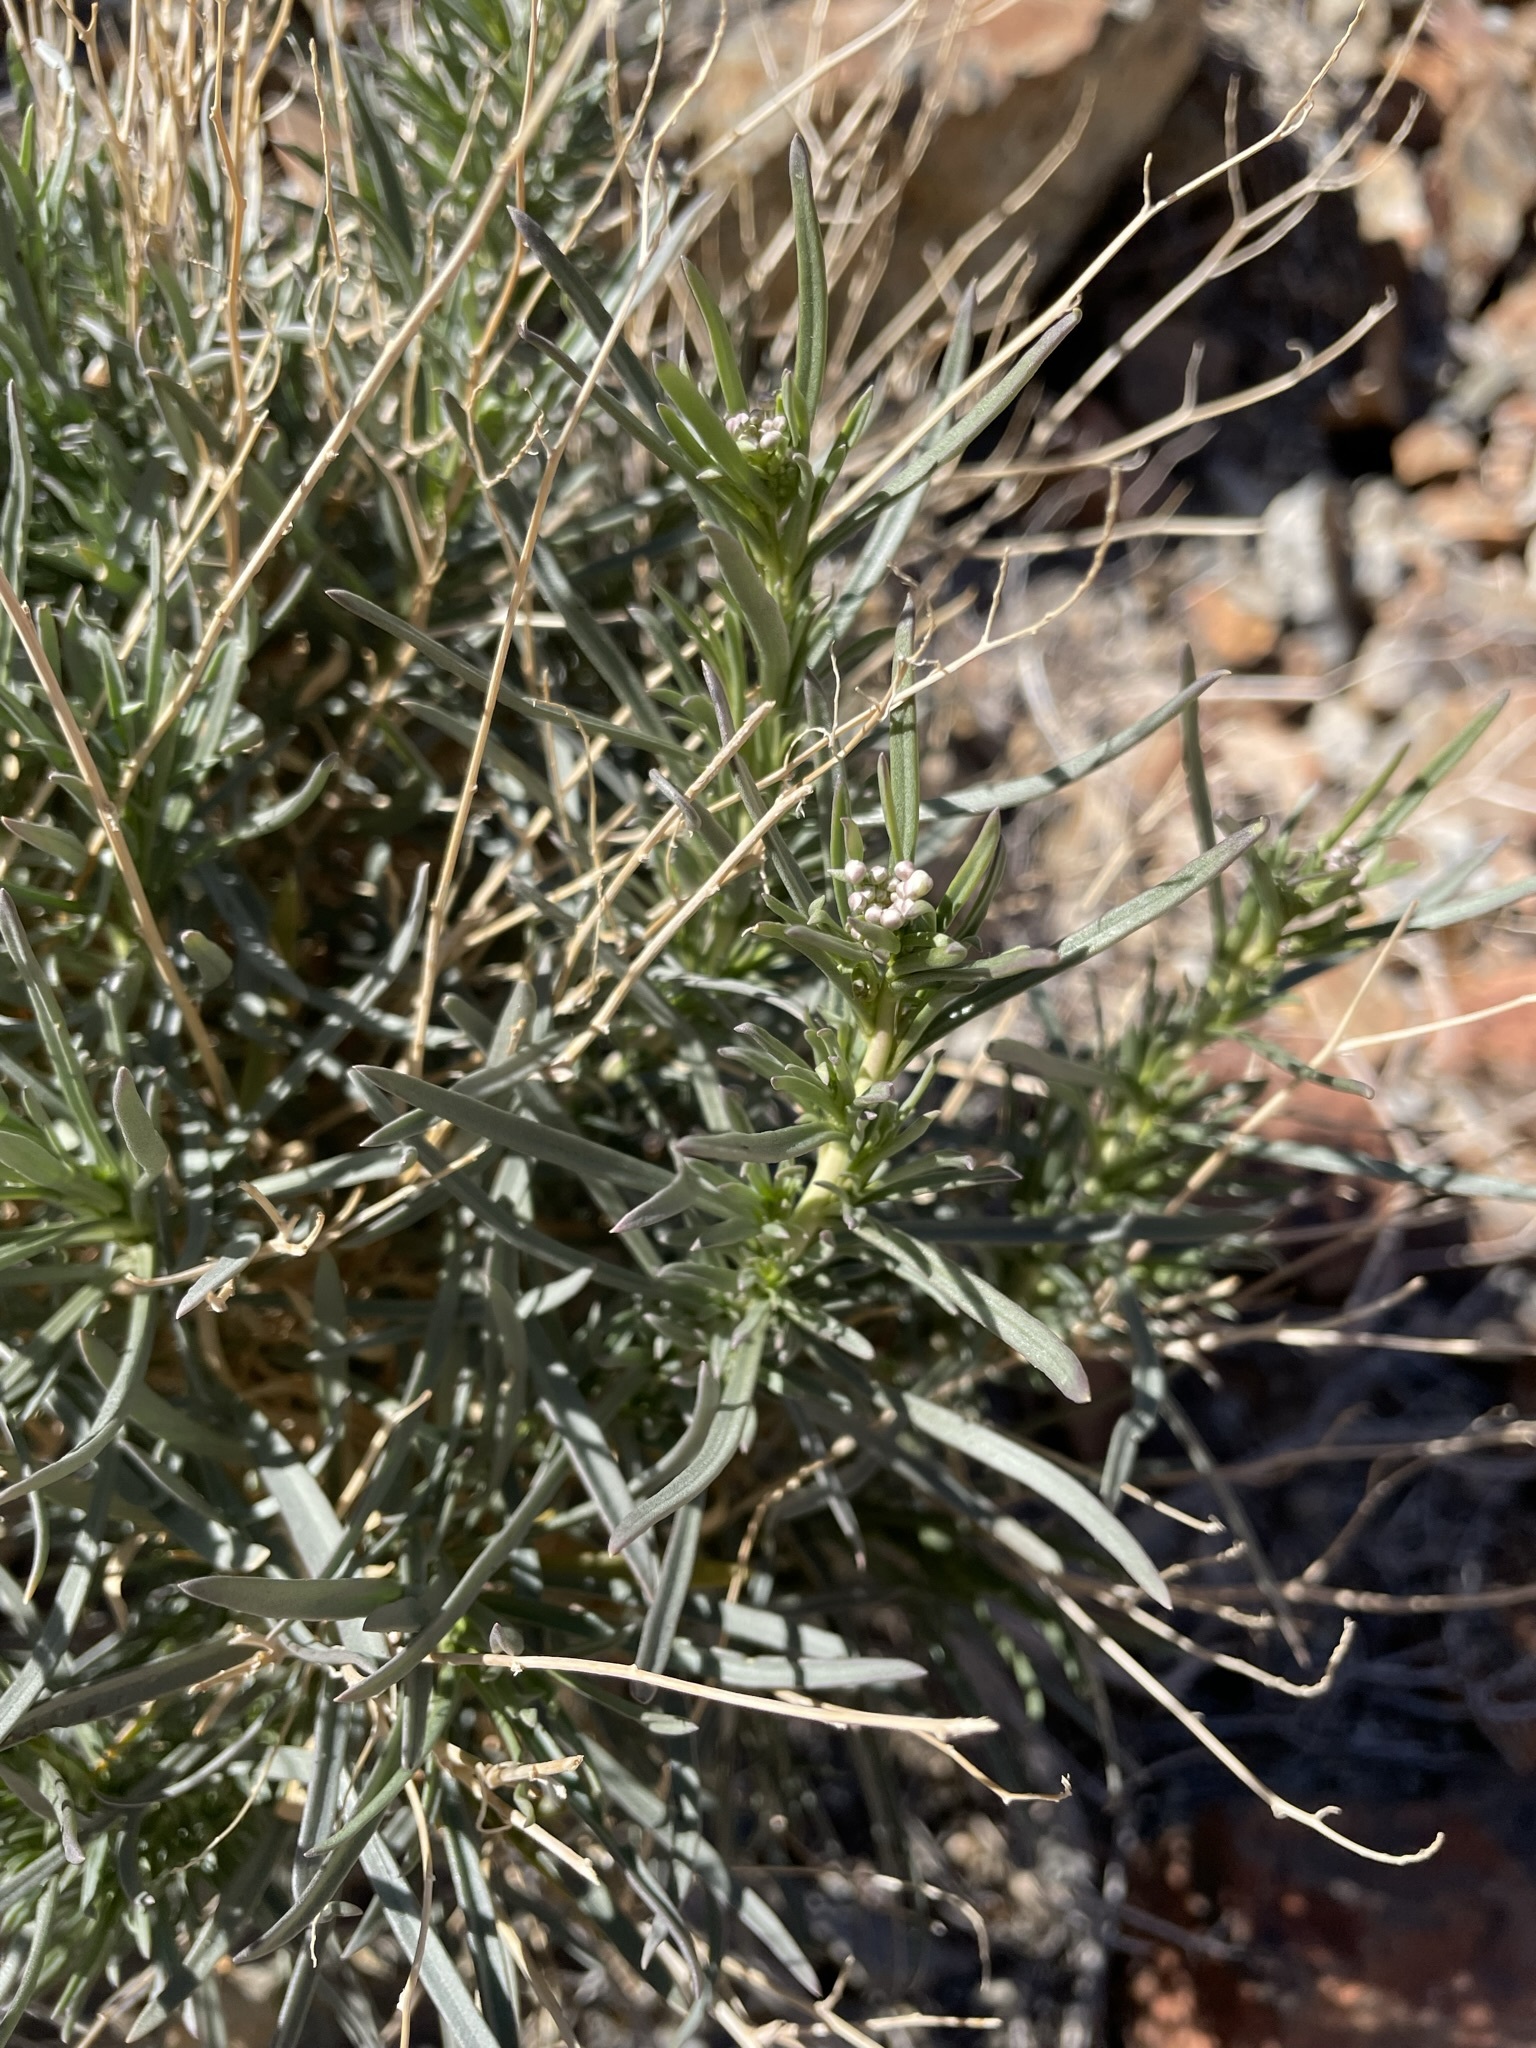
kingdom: Plantae
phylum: Tracheophyta
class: Magnoliopsida
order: Brassicales
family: Brassicaceae
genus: Lepidium
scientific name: Lepidium fremontii
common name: Fremont's pepperwort
